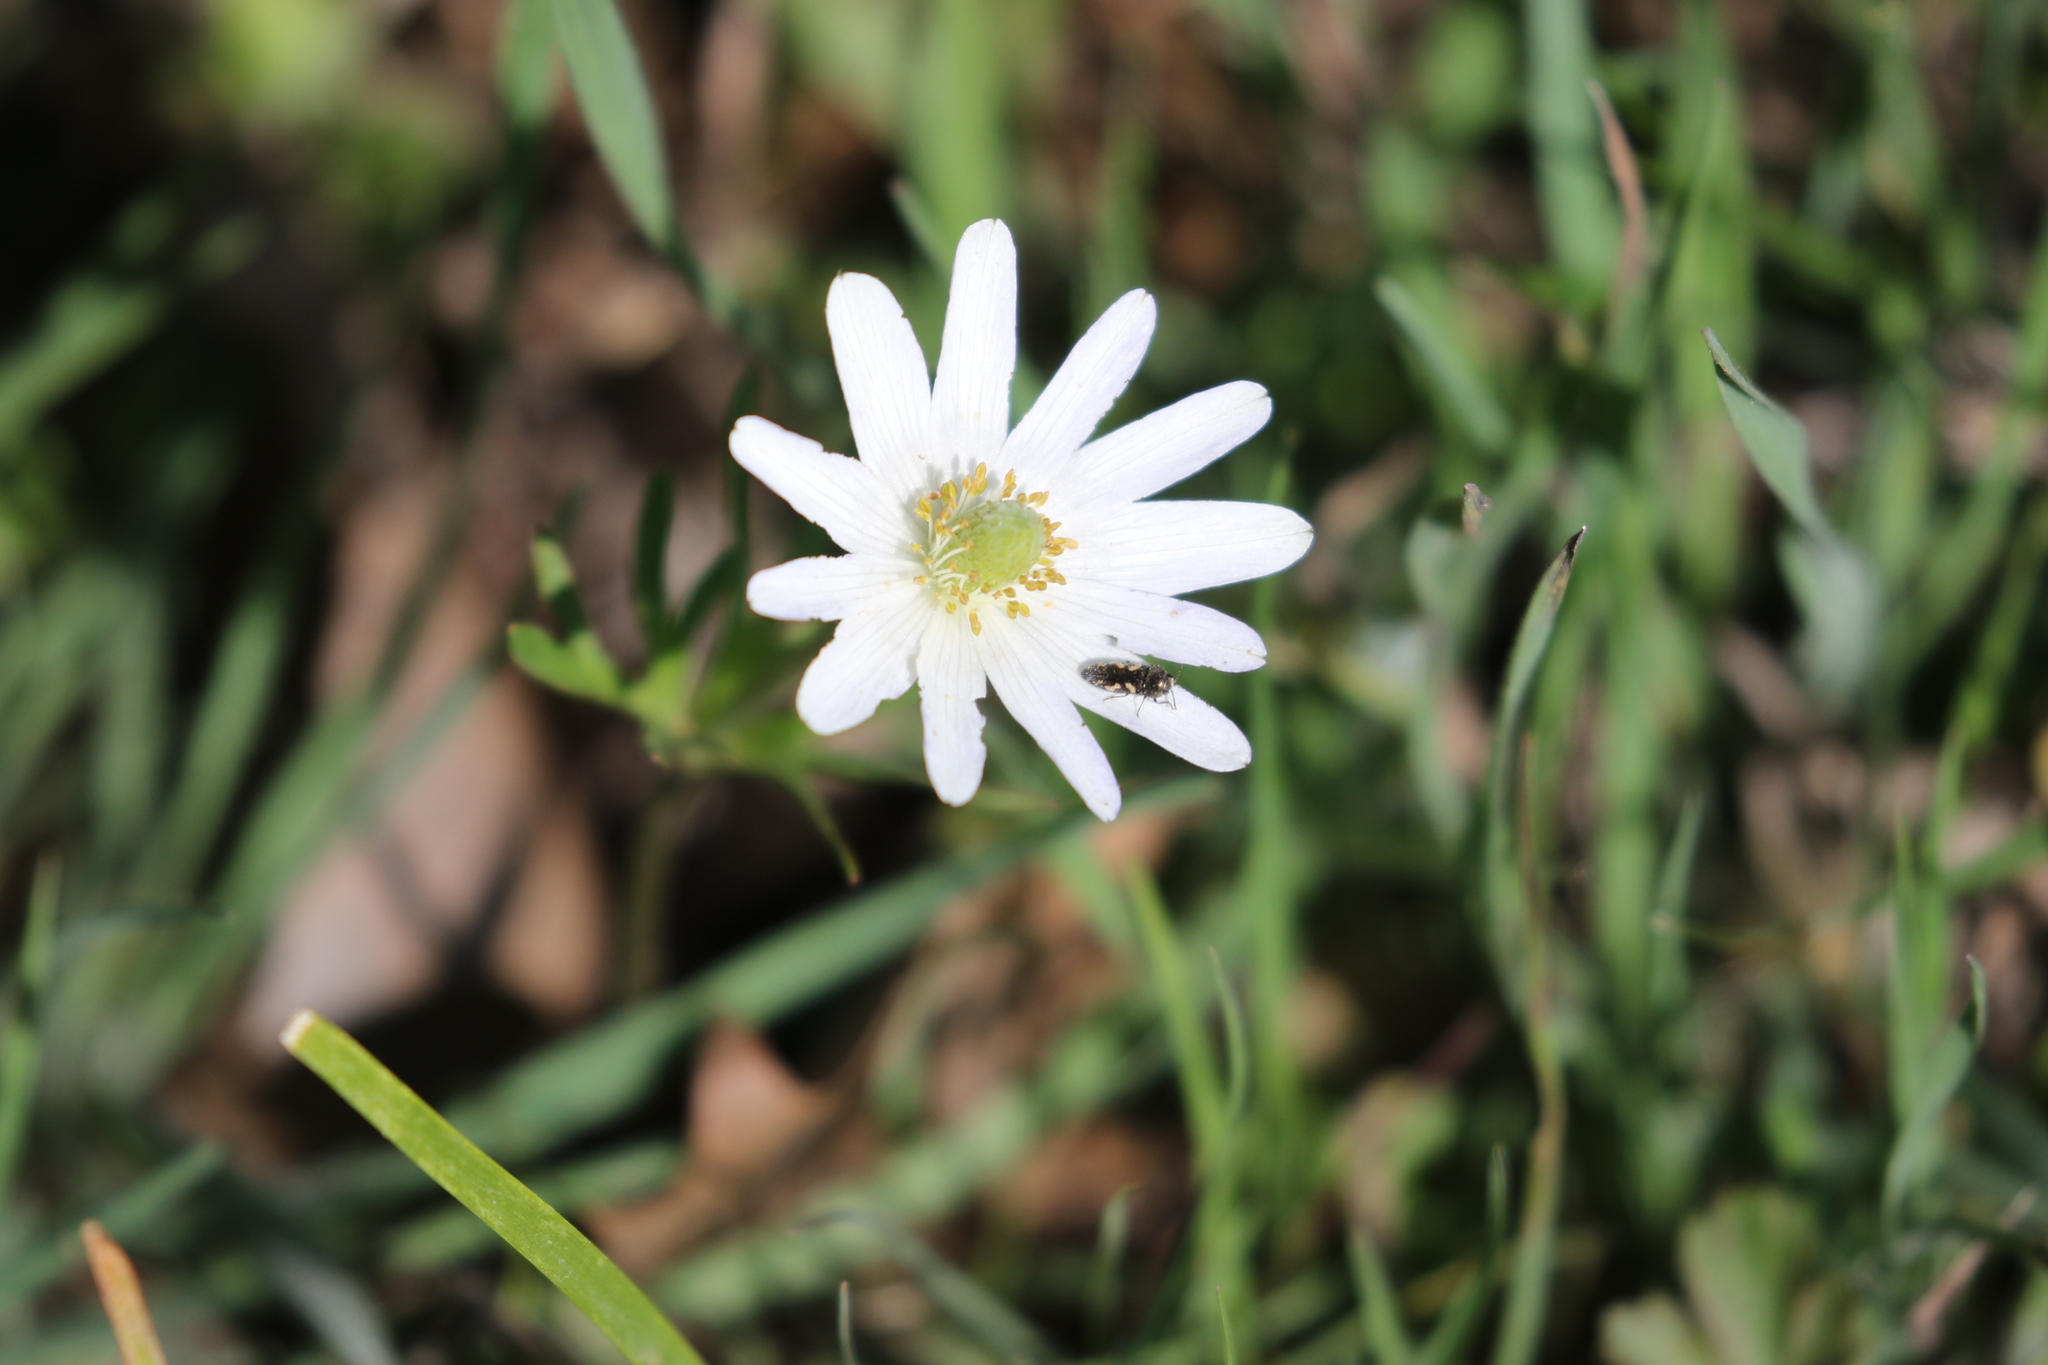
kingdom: Plantae
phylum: Tracheophyta
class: Magnoliopsida
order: Ranunculales
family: Ranunculaceae
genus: Anemone
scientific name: Anemone berlandieri
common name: Ten-petal anemone
